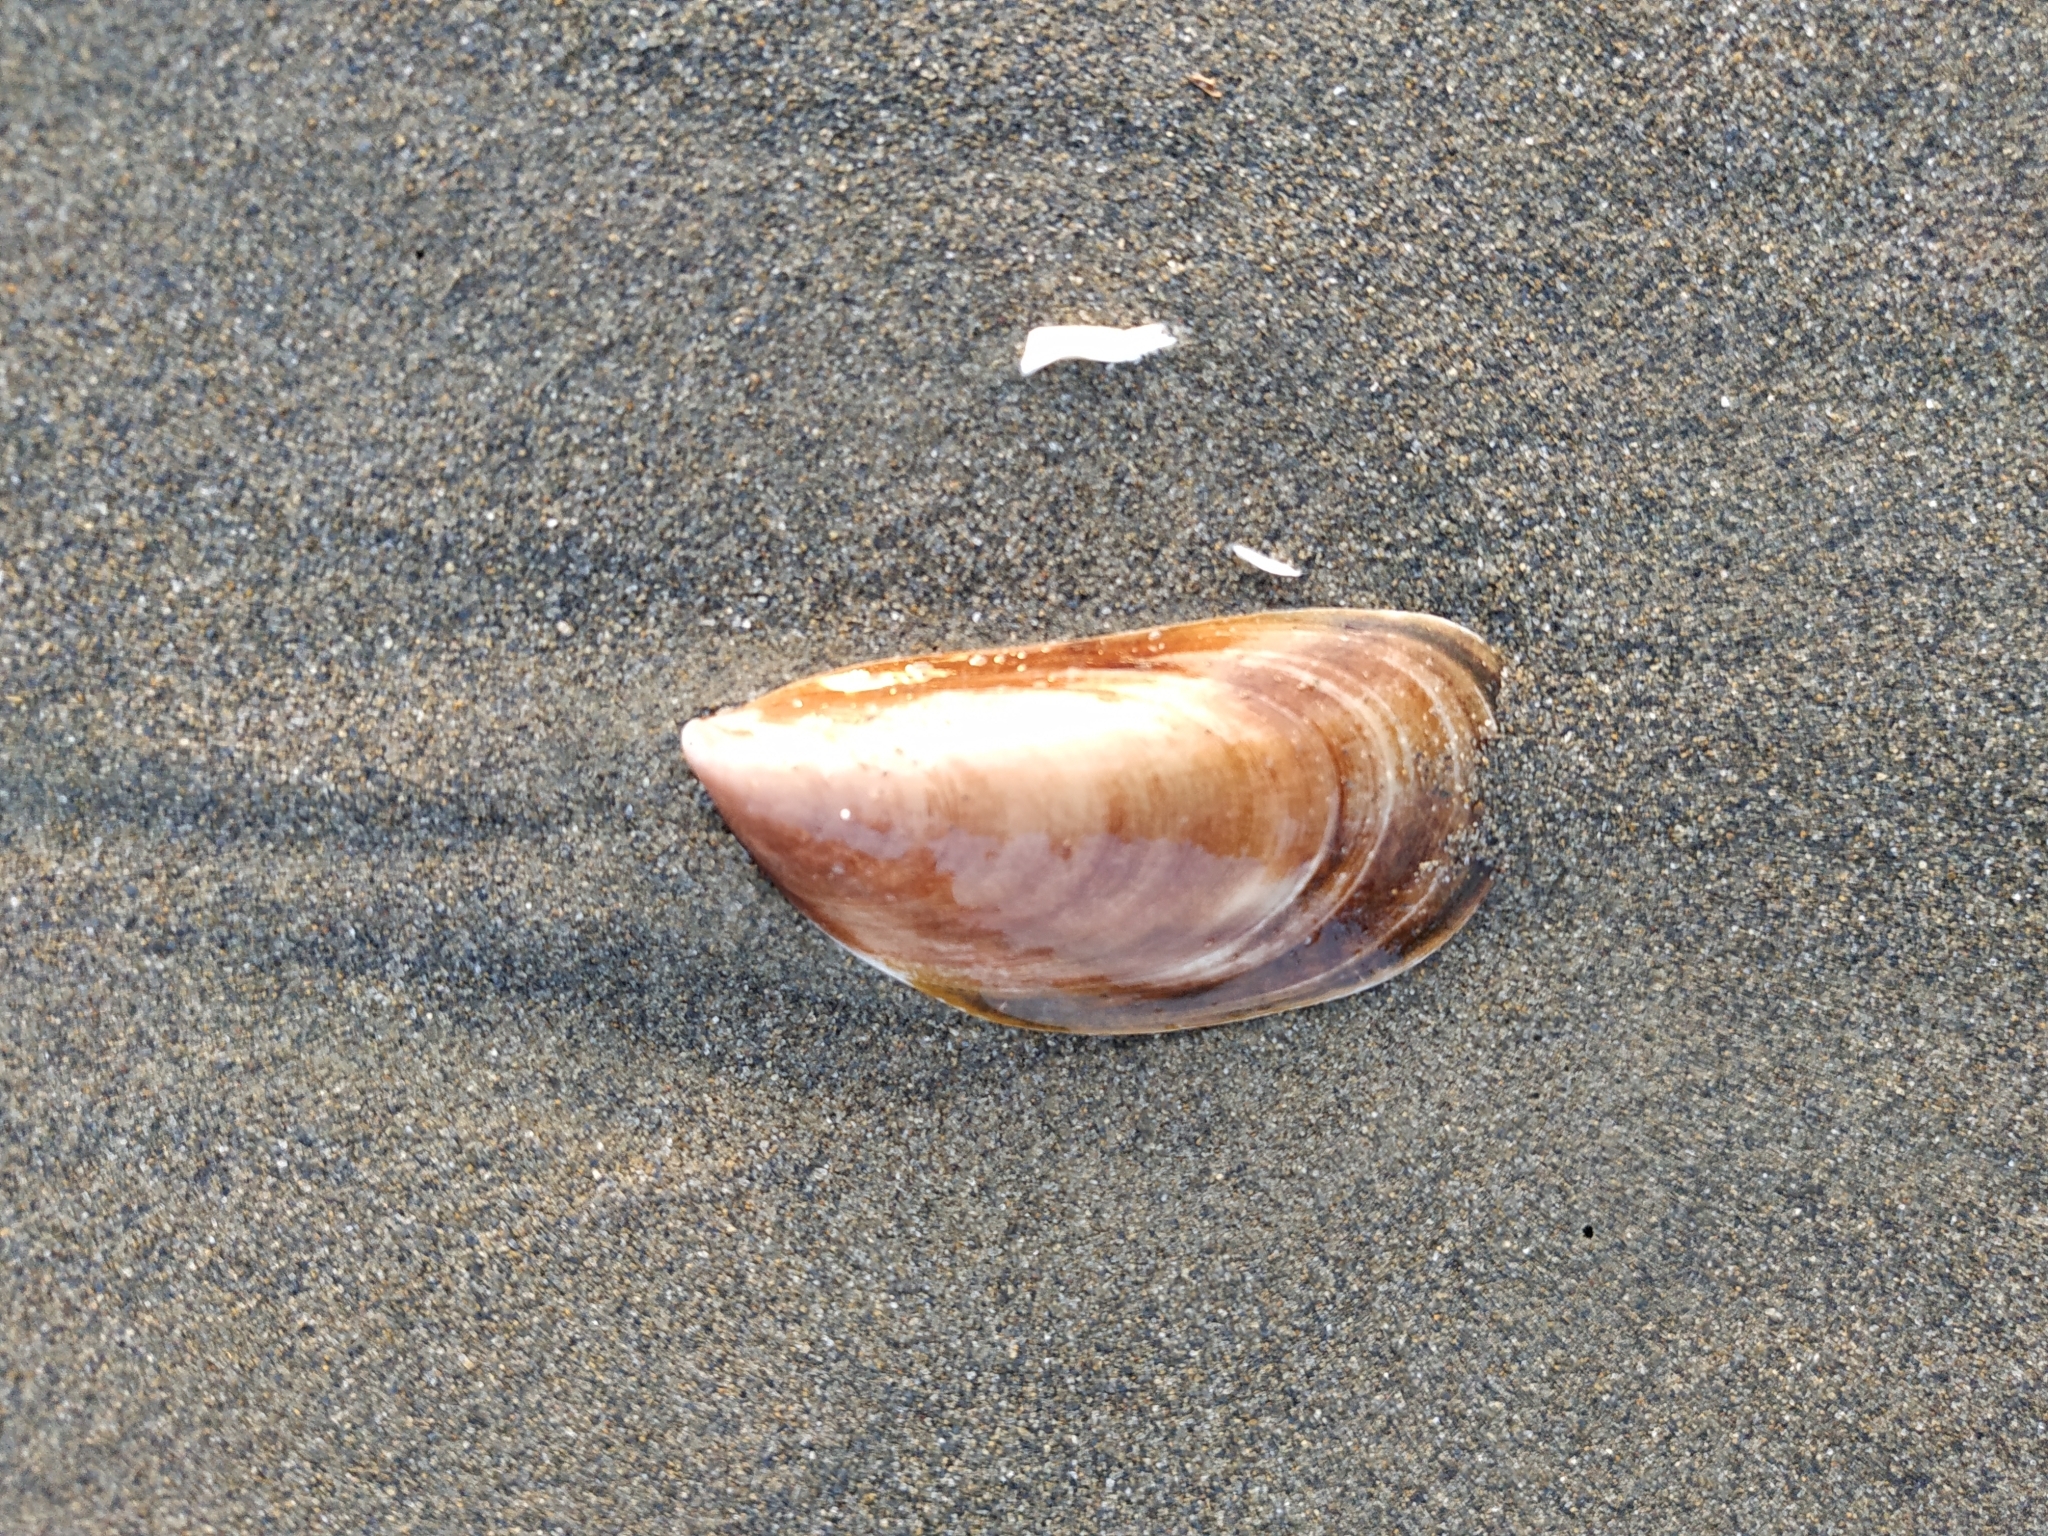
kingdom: Animalia
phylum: Mollusca
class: Bivalvia
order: Mytilida
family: Mytilidae
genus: Perna
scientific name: Perna viridis
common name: Green mussel
